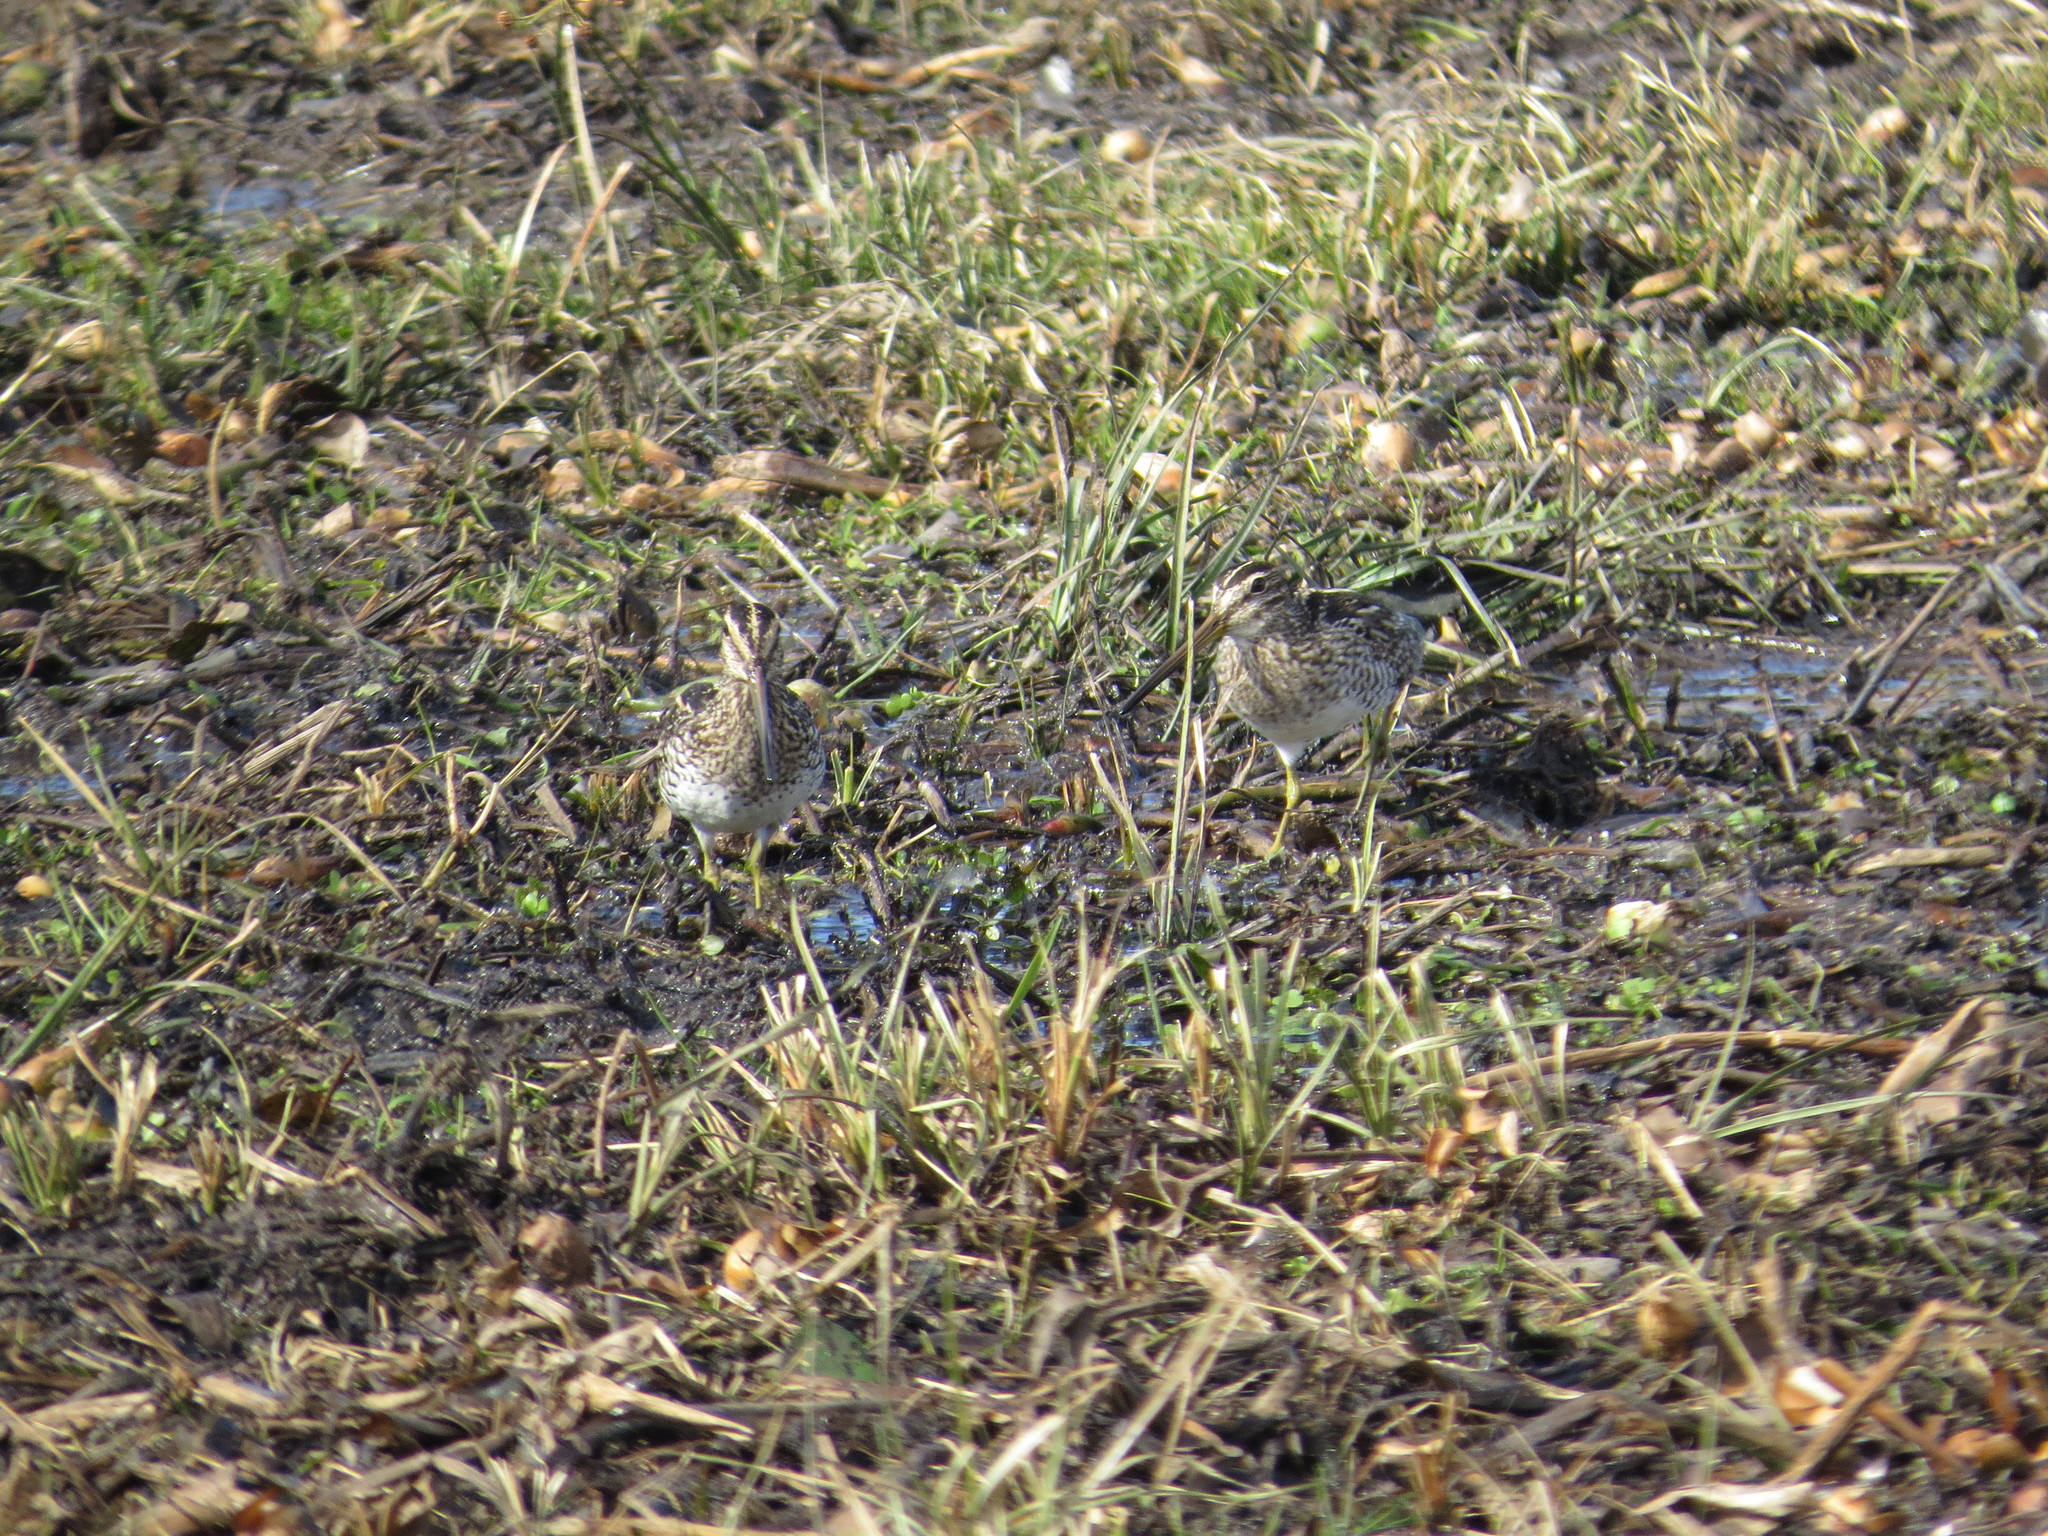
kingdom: Animalia
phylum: Chordata
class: Aves
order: Charadriiformes
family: Scolopacidae
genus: Gallinago
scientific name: Gallinago paraguaiae
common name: South american snipe
